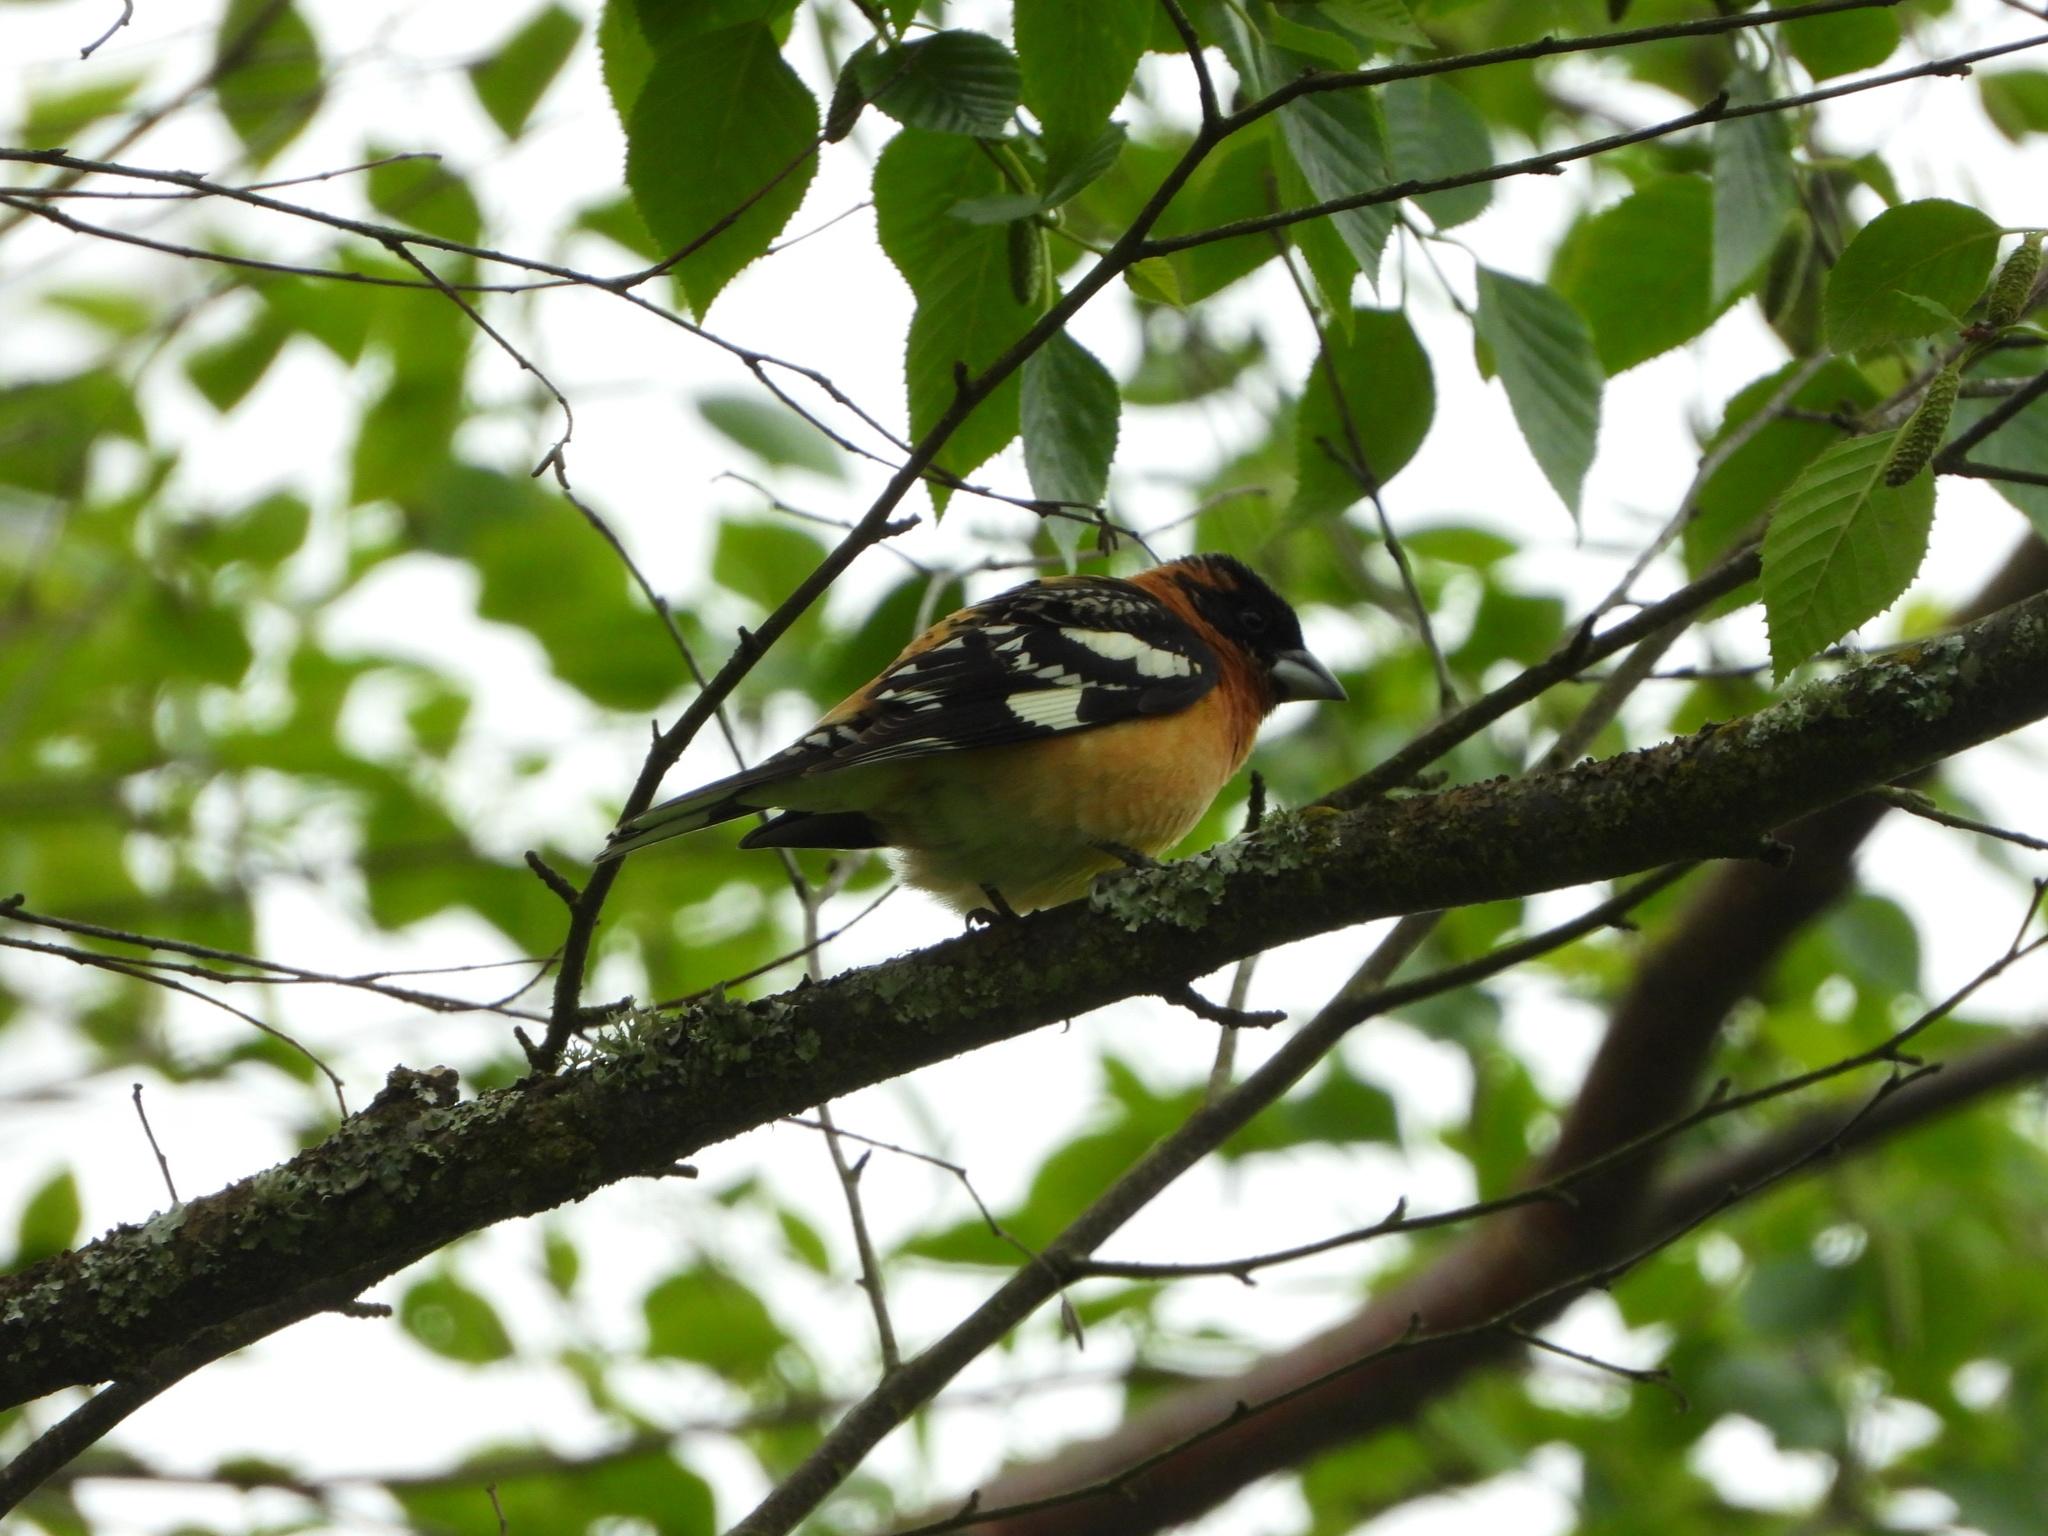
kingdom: Animalia
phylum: Chordata
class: Aves
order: Passeriformes
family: Cardinalidae
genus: Pheucticus
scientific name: Pheucticus melanocephalus
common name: Black-headed grosbeak
